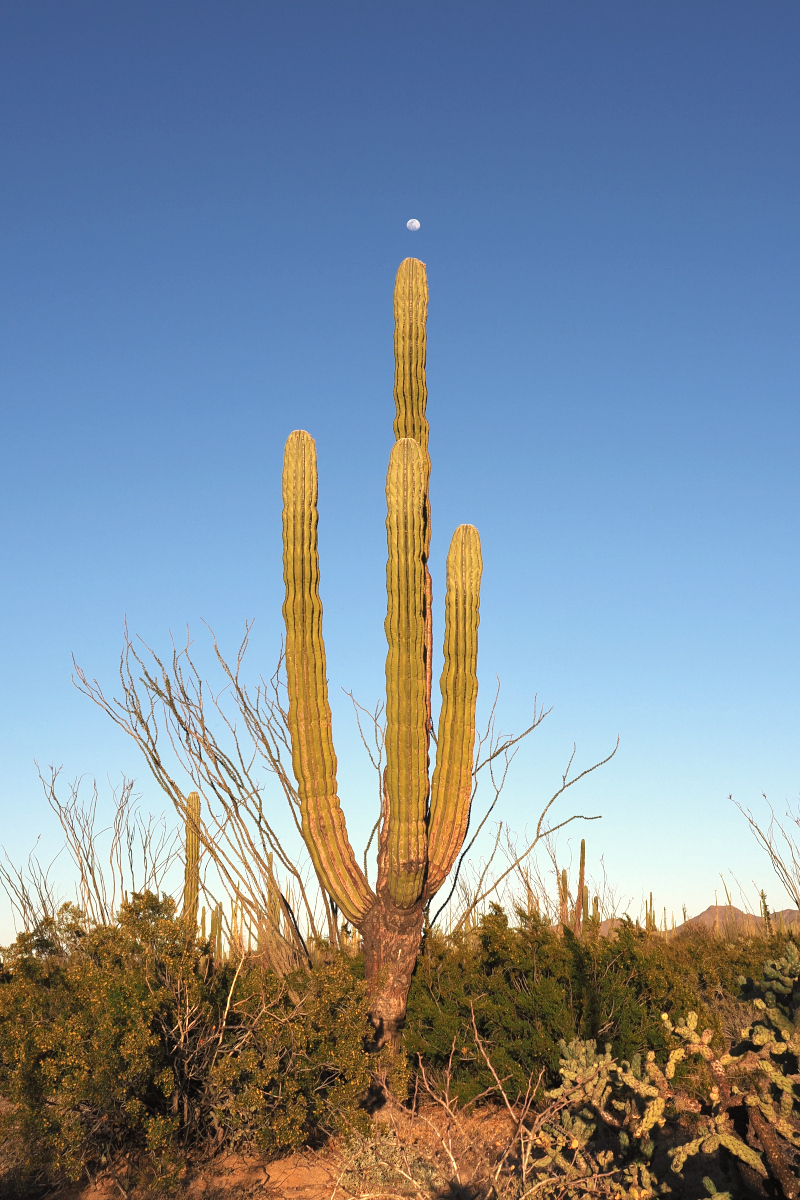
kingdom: Plantae
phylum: Tracheophyta
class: Magnoliopsida
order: Caryophyllales
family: Cactaceae
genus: Pachycereus
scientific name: Pachycereus pringlei
